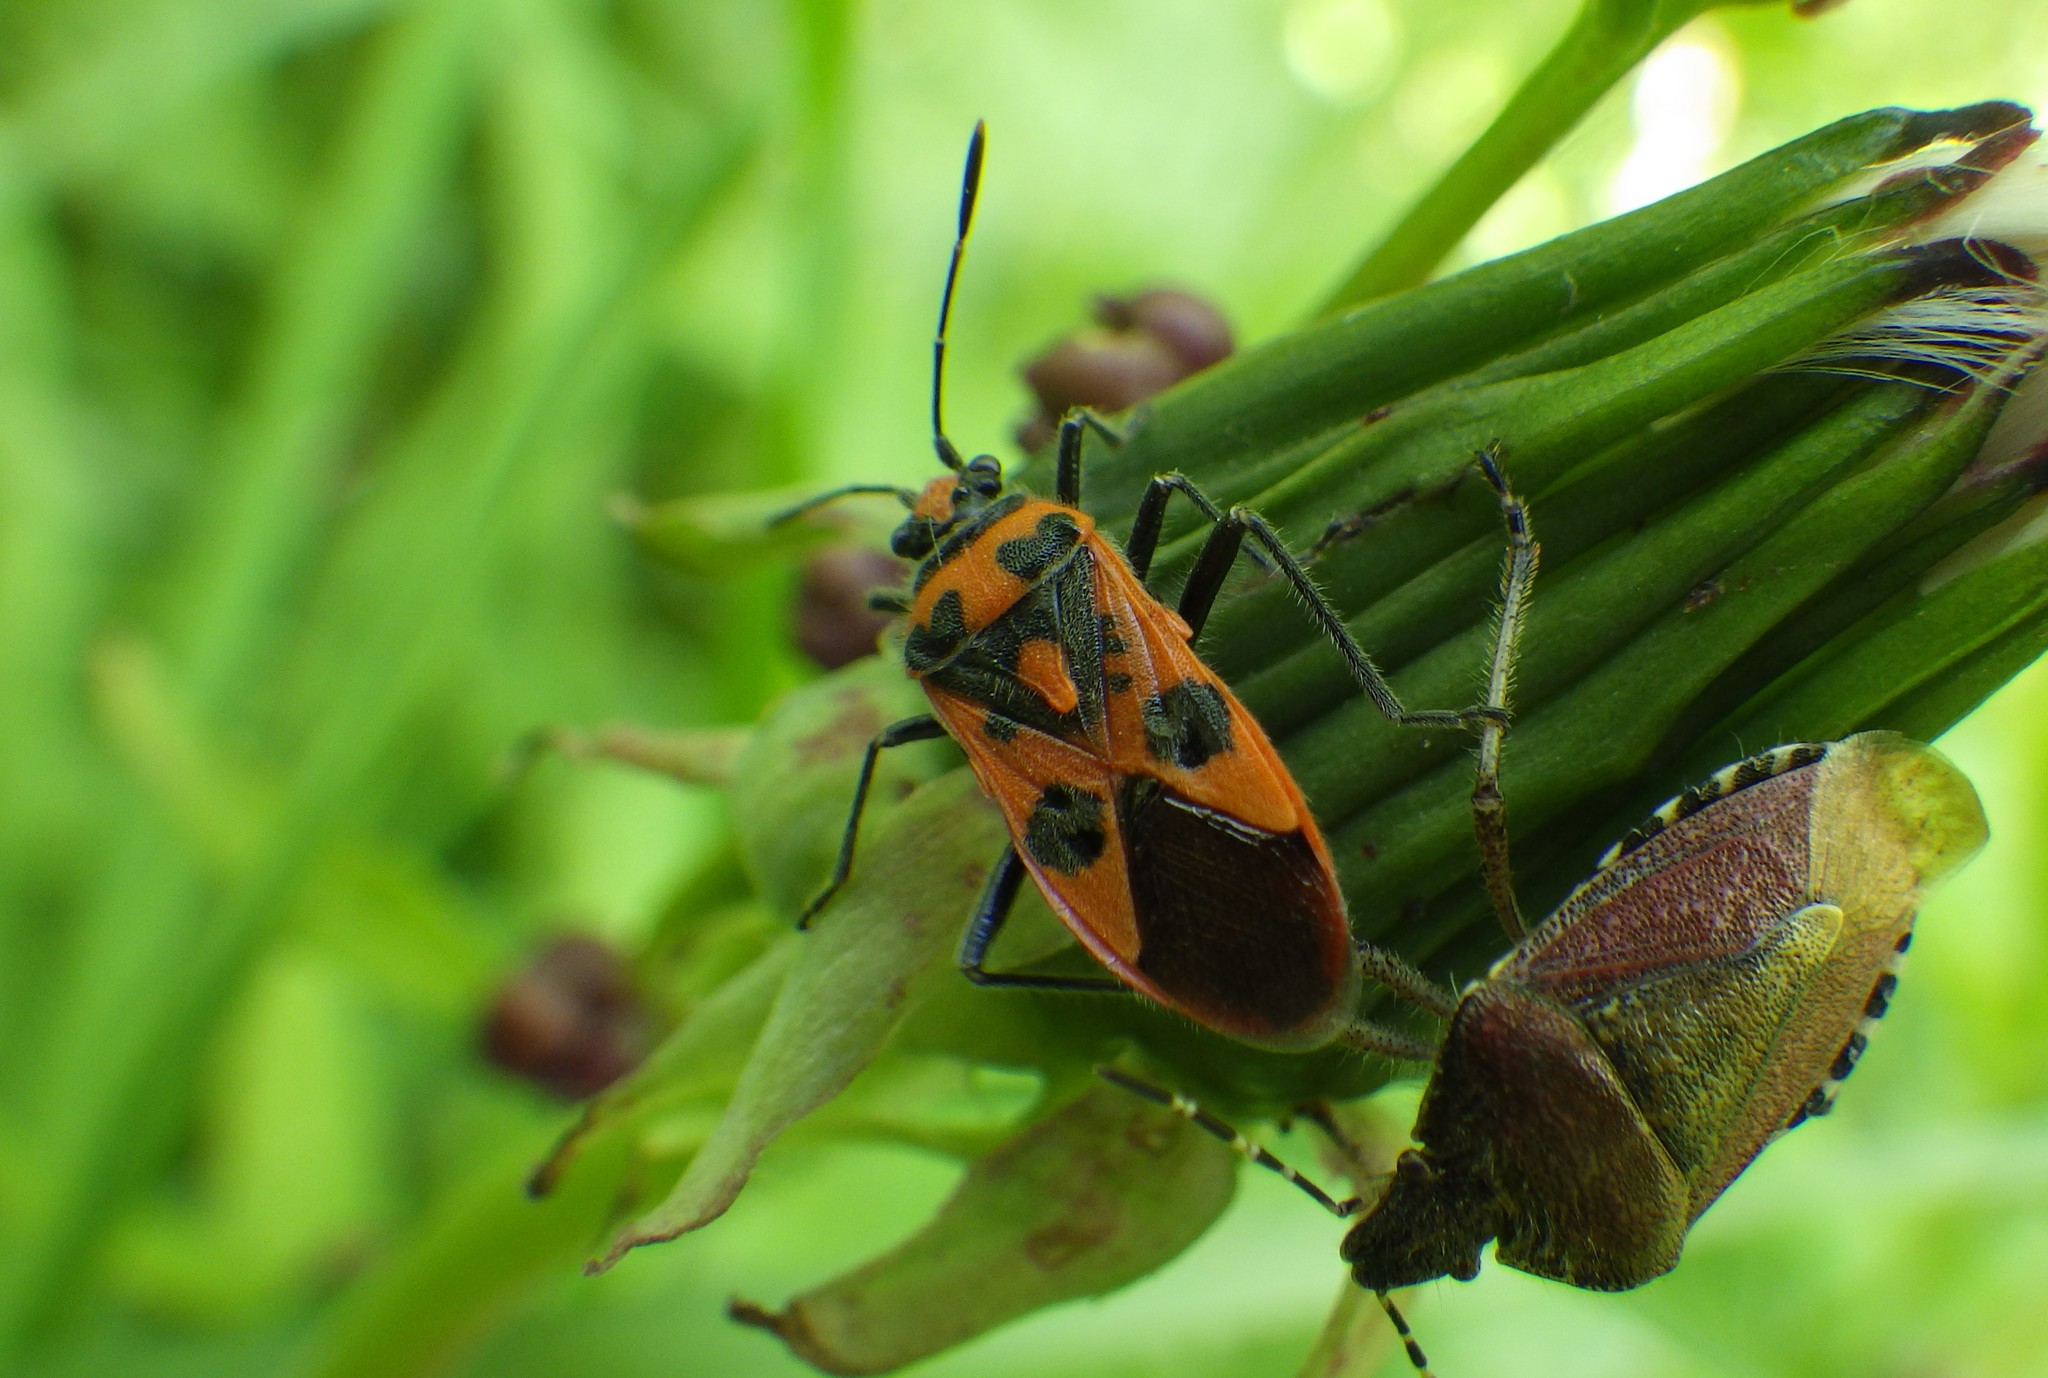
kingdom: Animalia
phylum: Arthropoda
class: Insecta
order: Hemiptera
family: Rhopalidae
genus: Corizus
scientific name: Corizus hyoscyami
